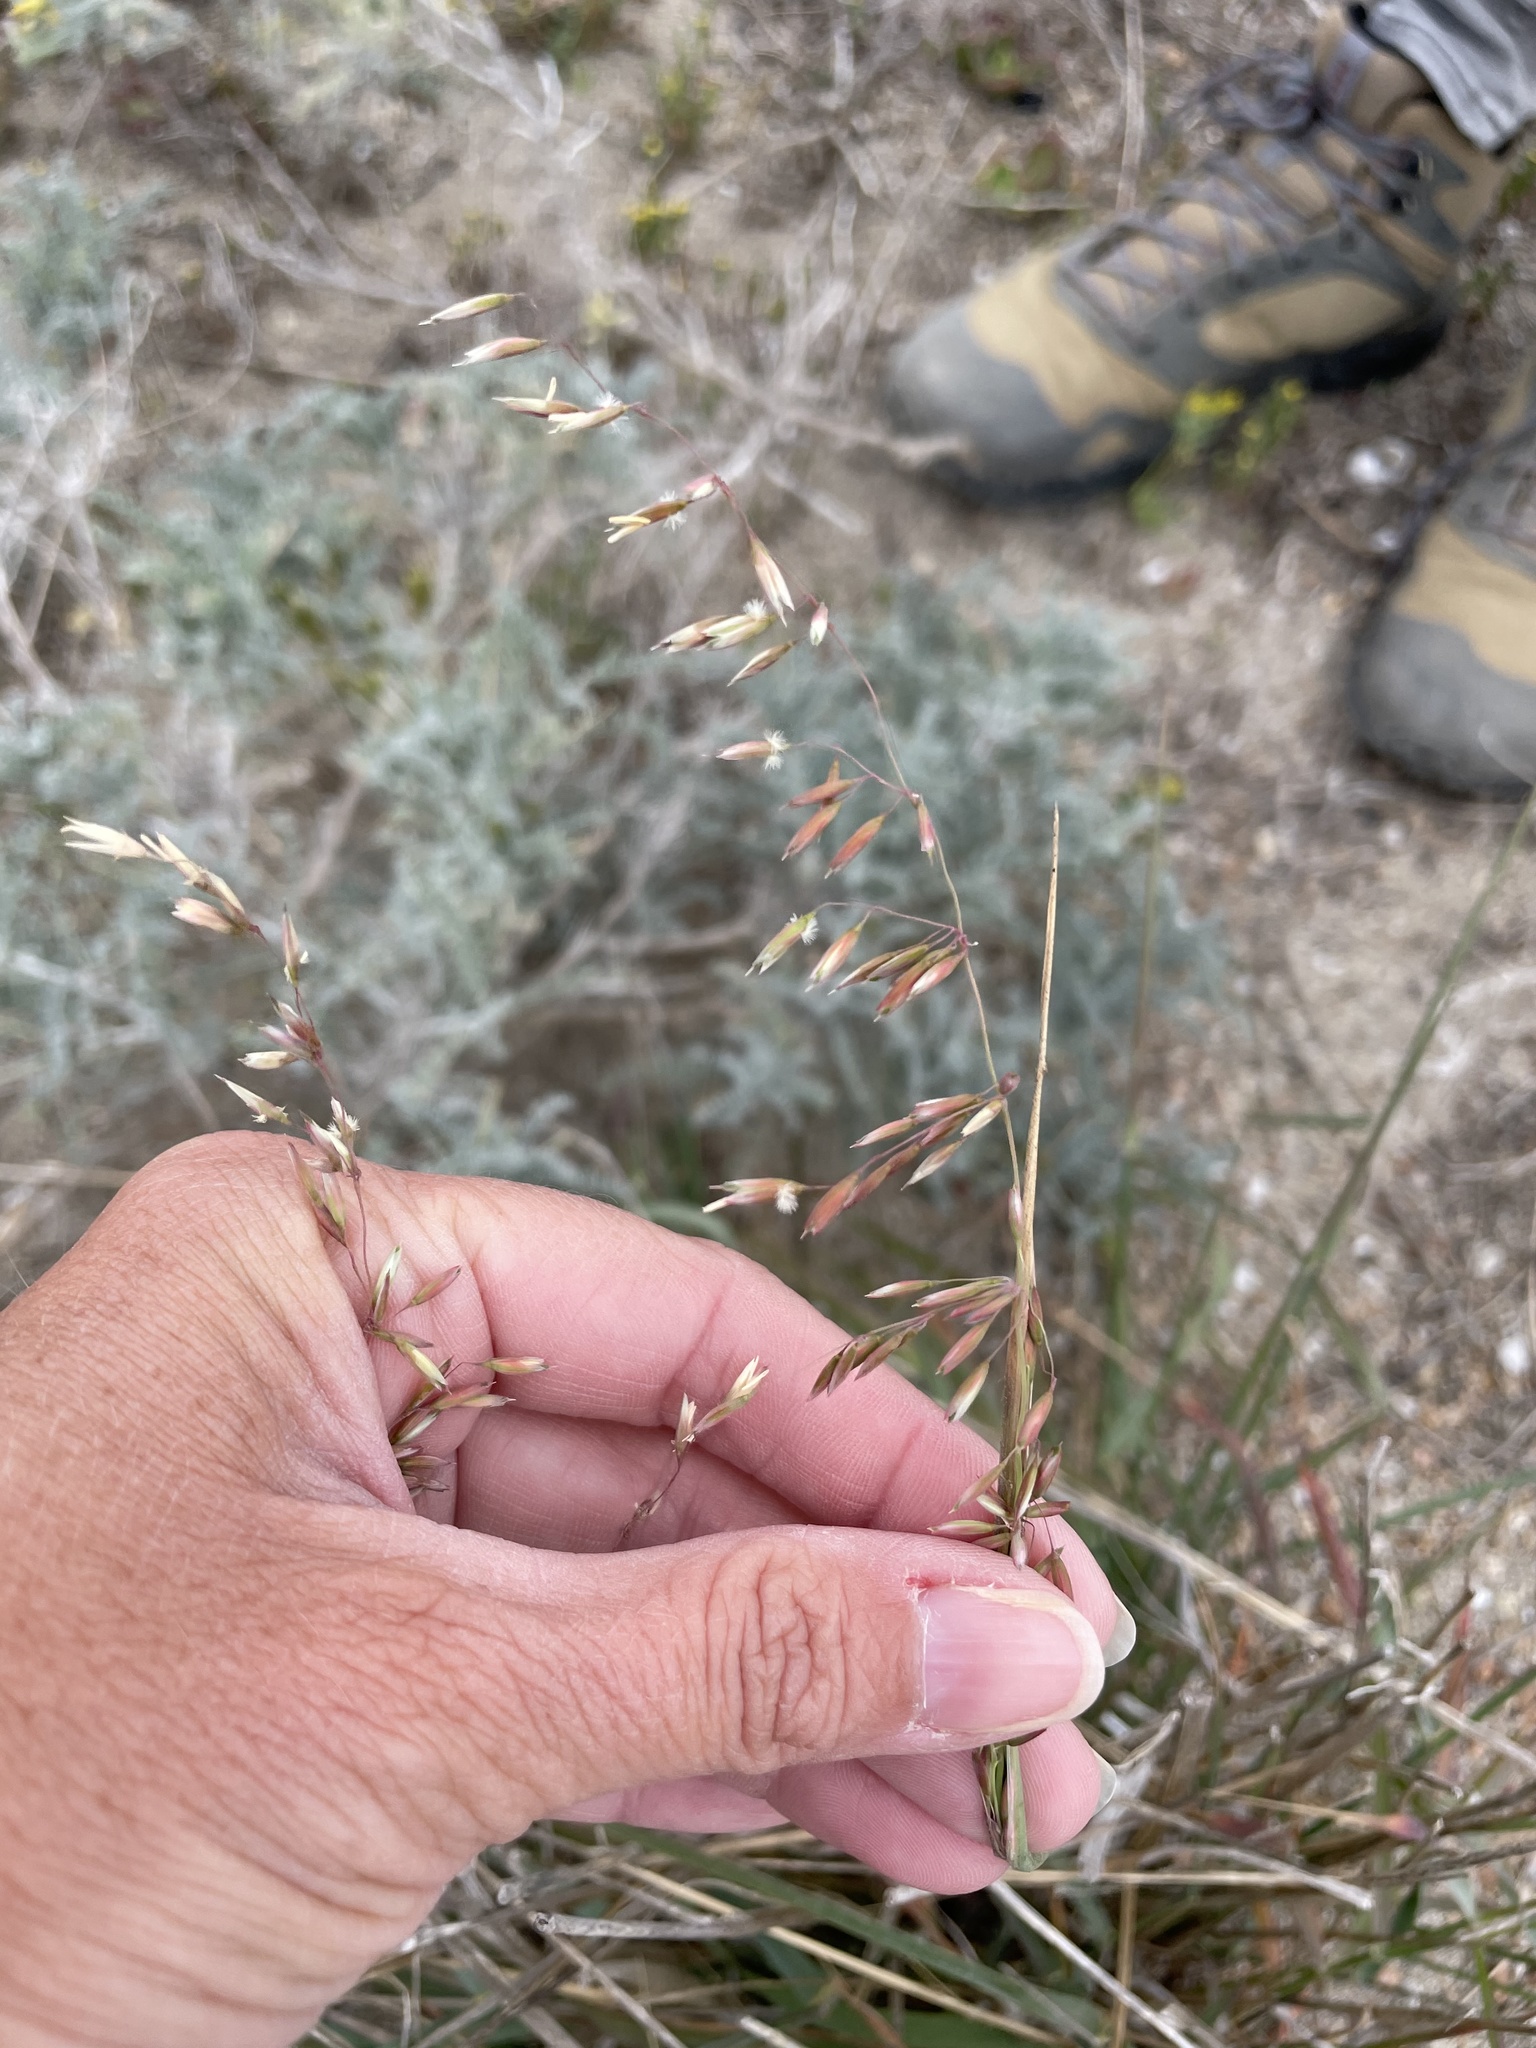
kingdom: Plantae
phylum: Tracheophyta
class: Liliopsida
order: Poales
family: Poaceae
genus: Ehrharta
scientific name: Ehrharta calycina
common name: Perennial veldtgrass
